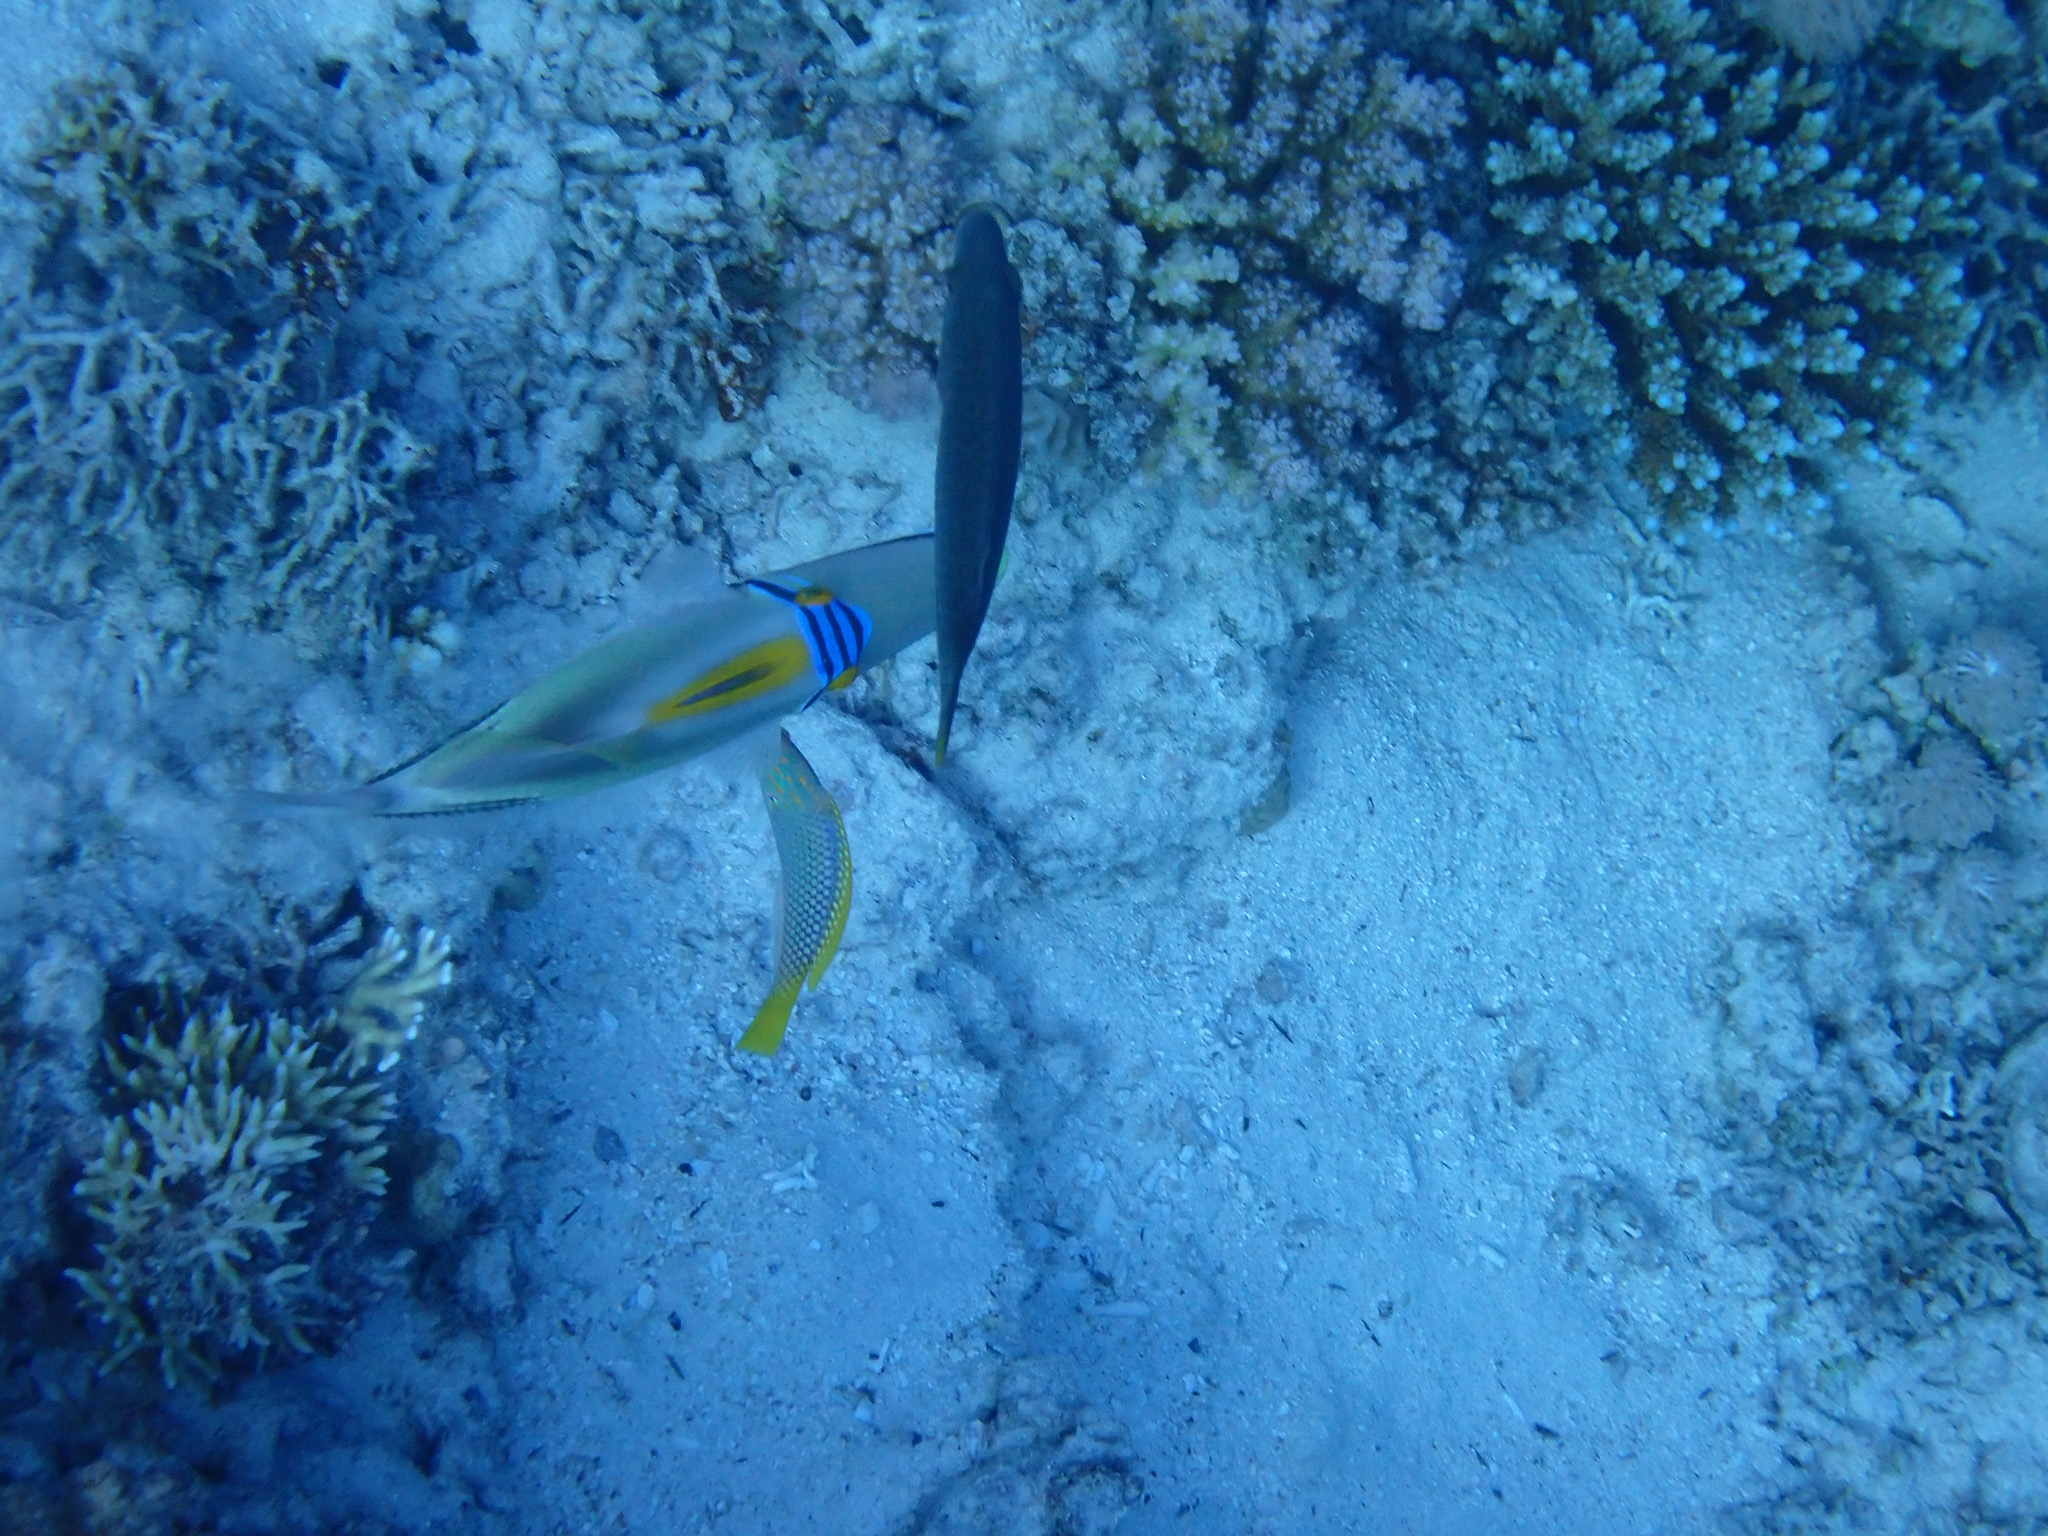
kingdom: Animalia
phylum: Chordata
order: Tetraodontiformes
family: Balistidae
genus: Rhinecanthus
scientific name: Rhinecanthus assasi
